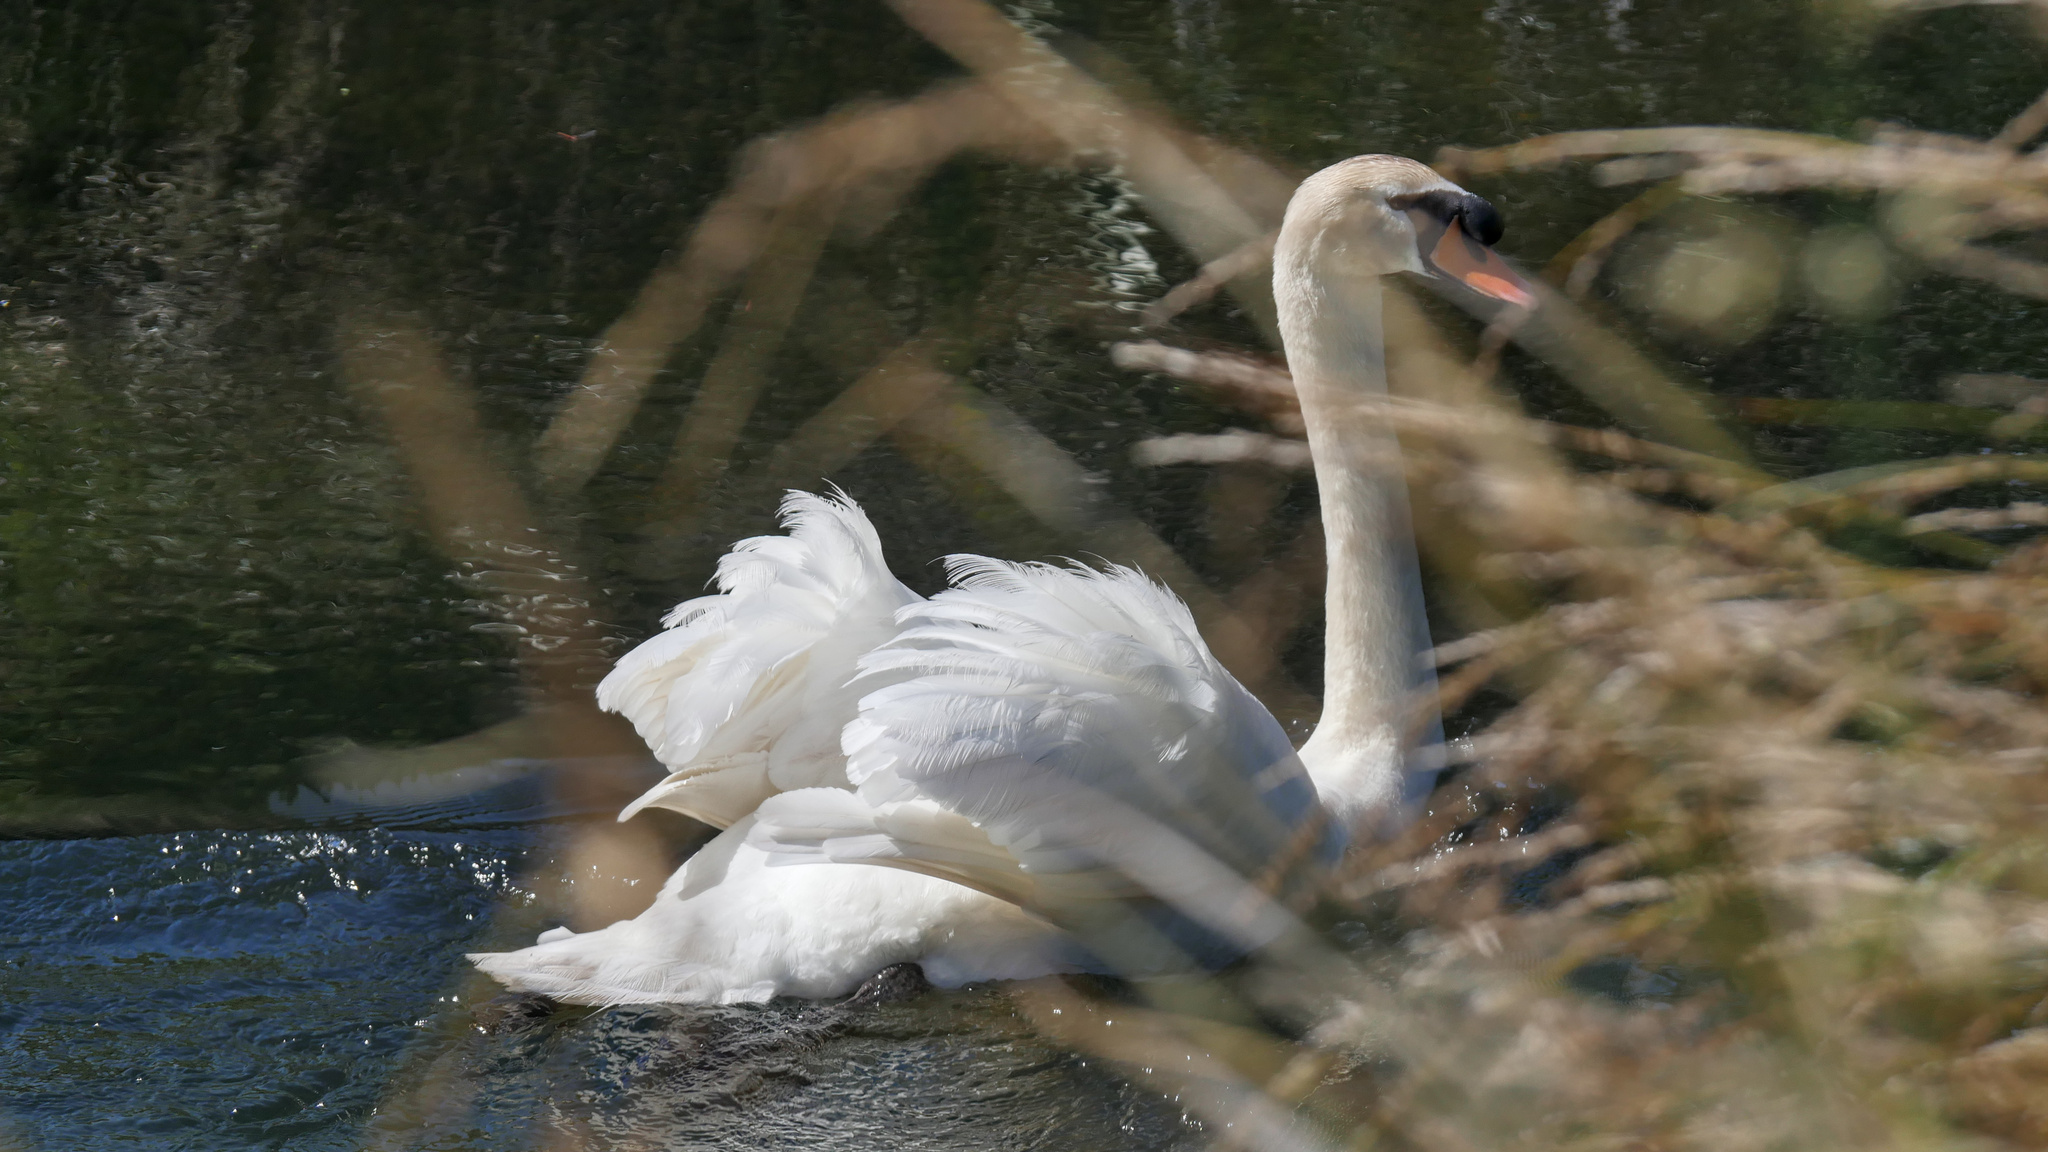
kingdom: Animalia
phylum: Chordata
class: Aves
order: Anseriformes
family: Anatidae
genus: Cygnus
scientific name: Cygnus olor
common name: Mute swan
